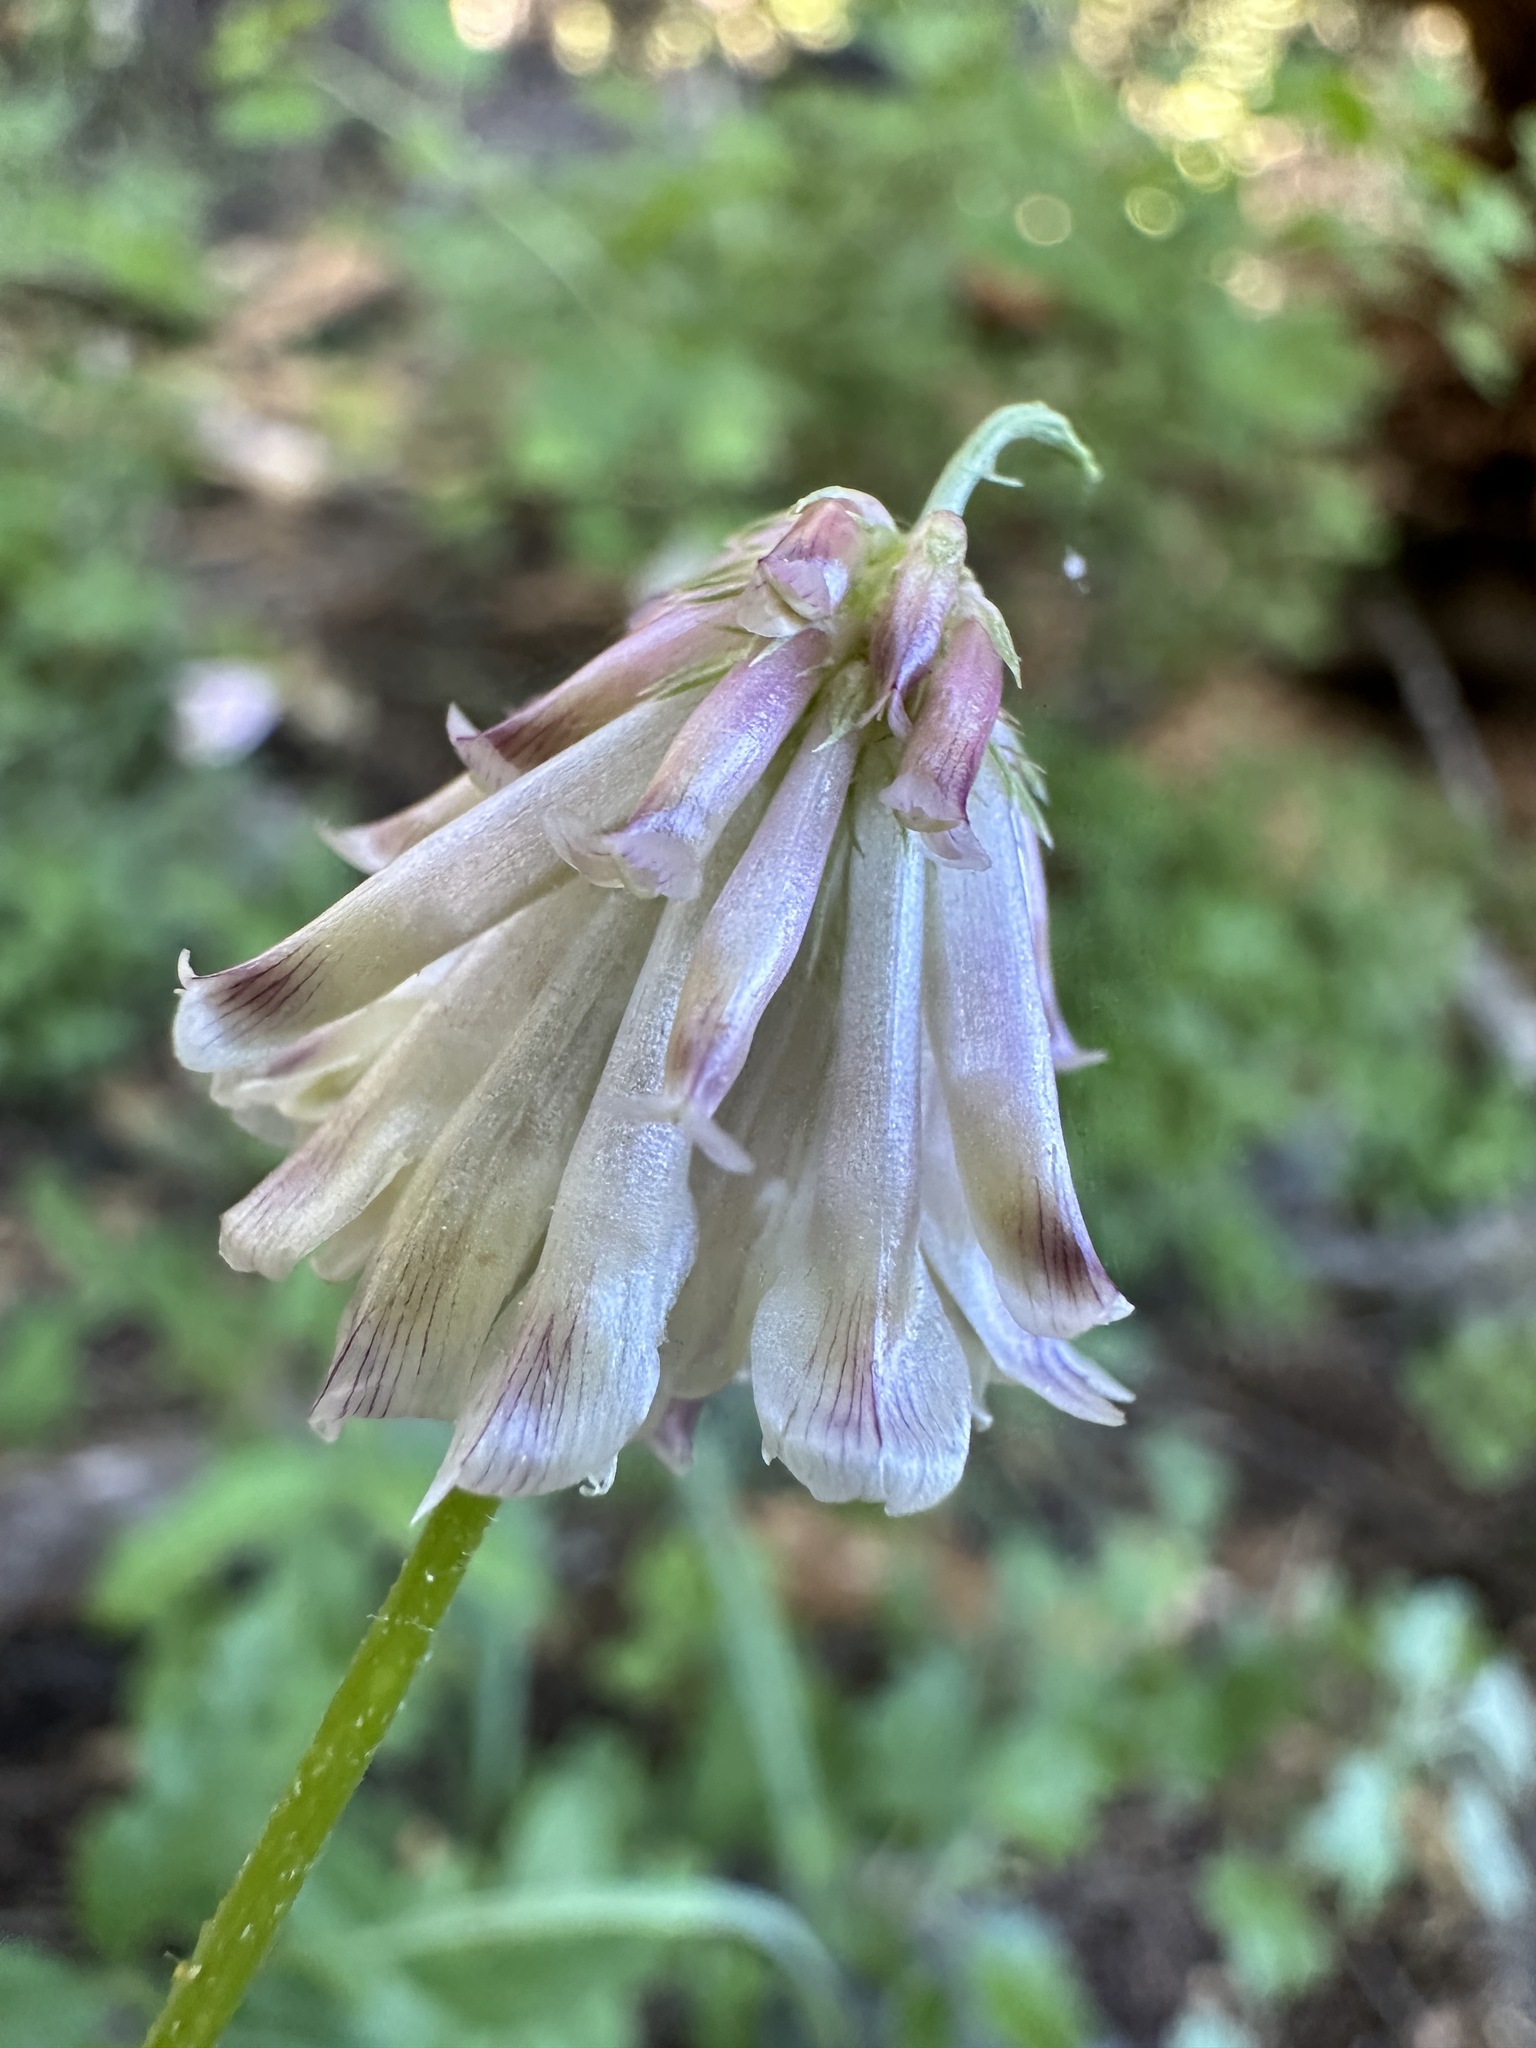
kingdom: Plantae
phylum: Tracheophyta
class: Magnoliopsida
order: Fabales
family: Fabaceae
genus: Trifolium
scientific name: Trifolium productum
